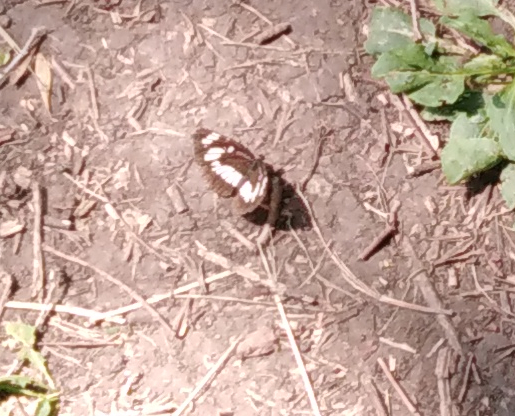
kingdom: Animalia
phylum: Arthropoda
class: Insecta
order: Lepidoptera
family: Nymphalidae
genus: Neptis
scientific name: Neptis rivularis
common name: Hungarian glider
